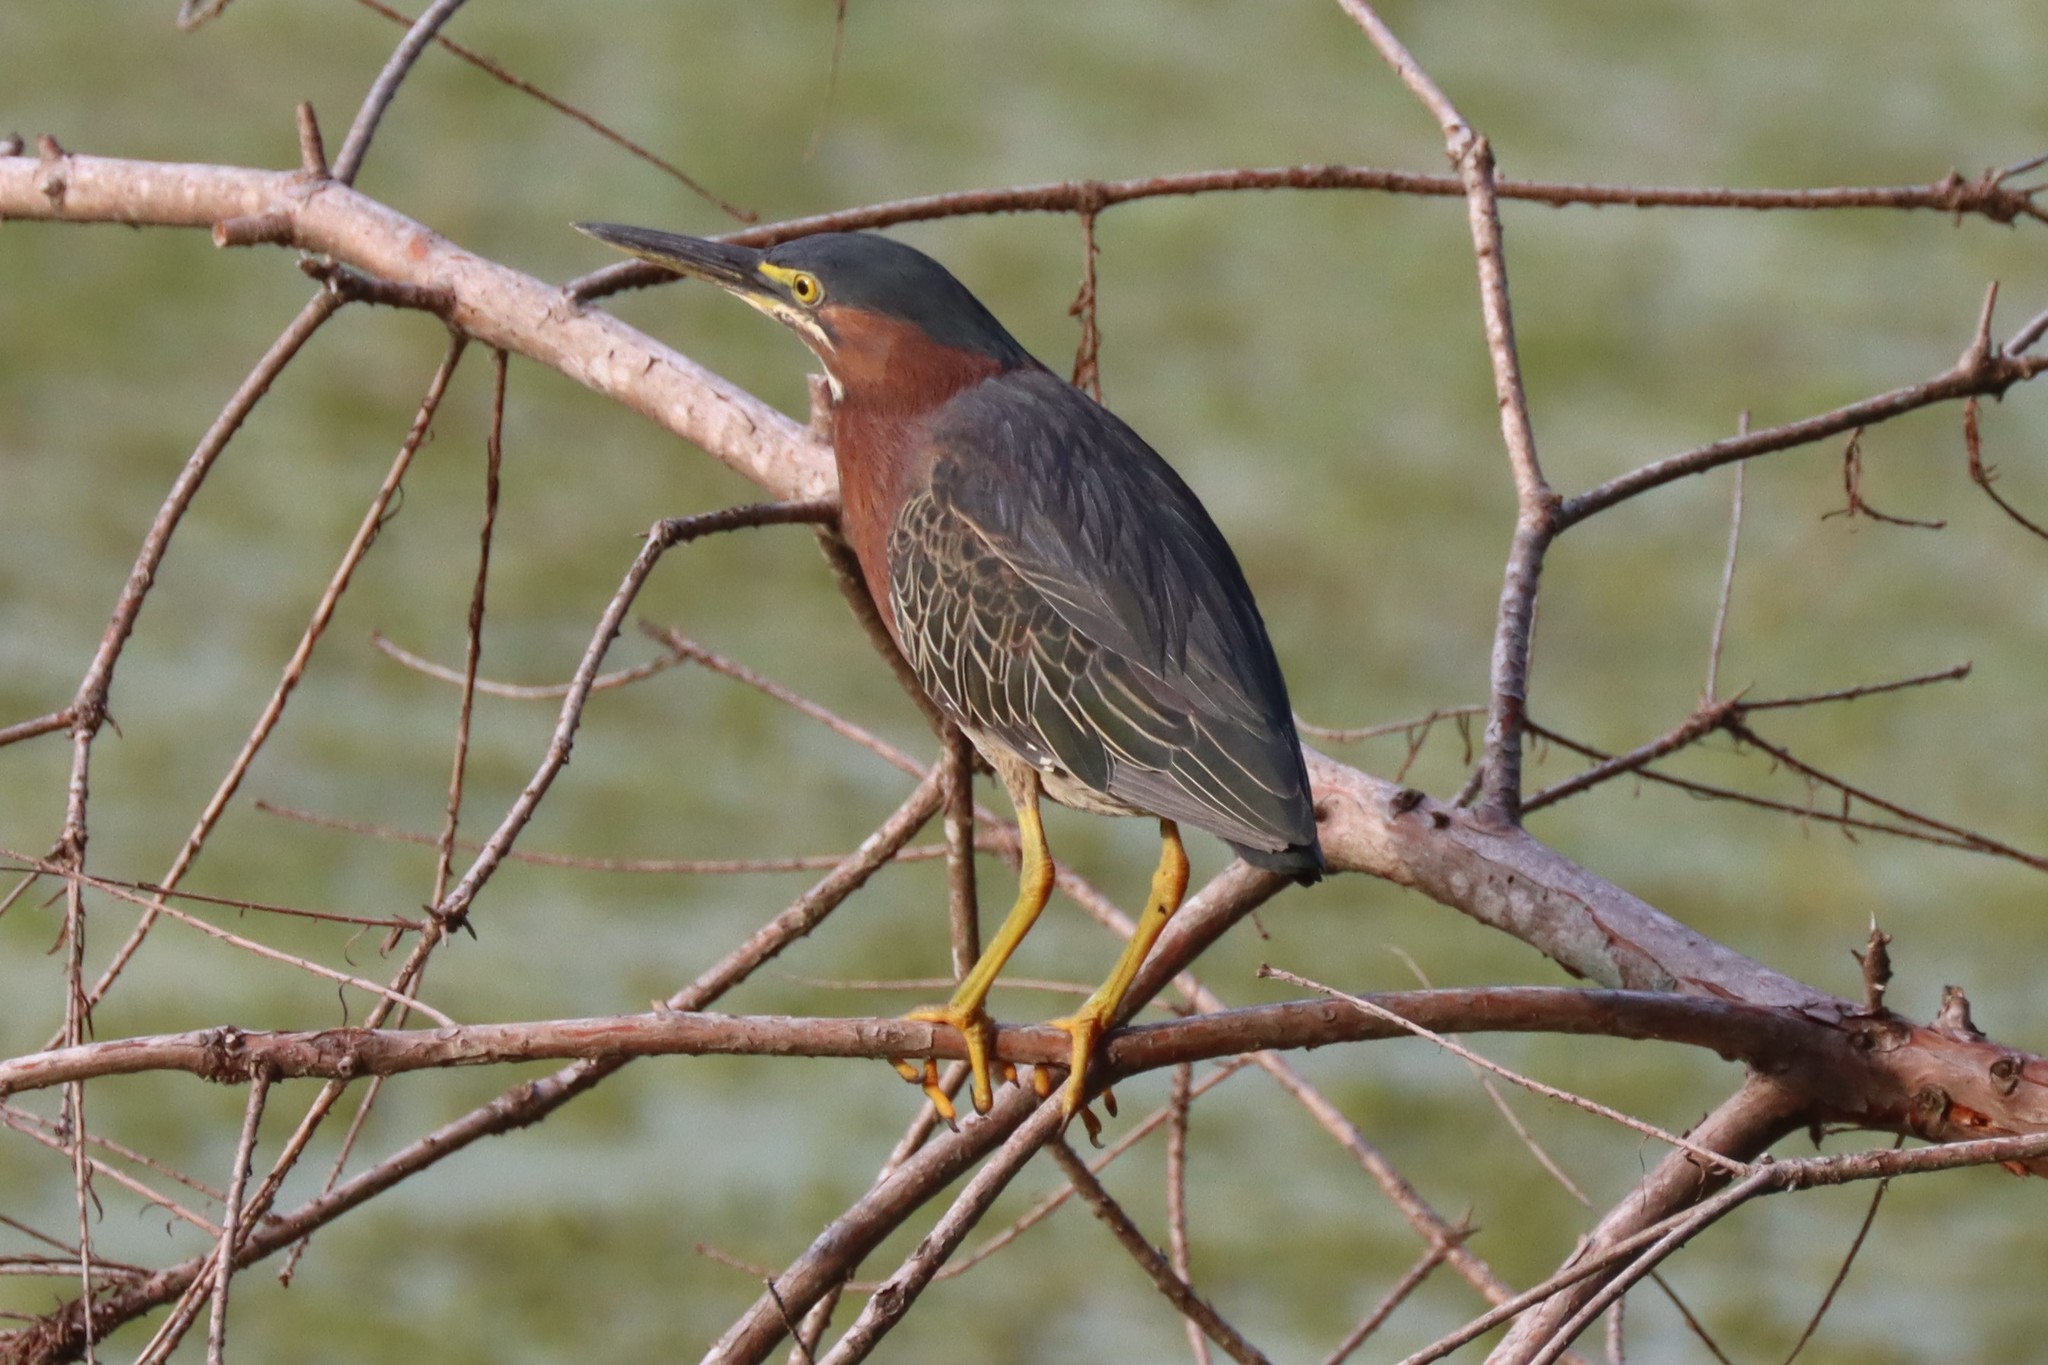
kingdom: Animalia
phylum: Chordata
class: Aves
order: Pelecaniformes
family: Ardeidae
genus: Butorides
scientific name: Butorides virescens
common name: Green heron
